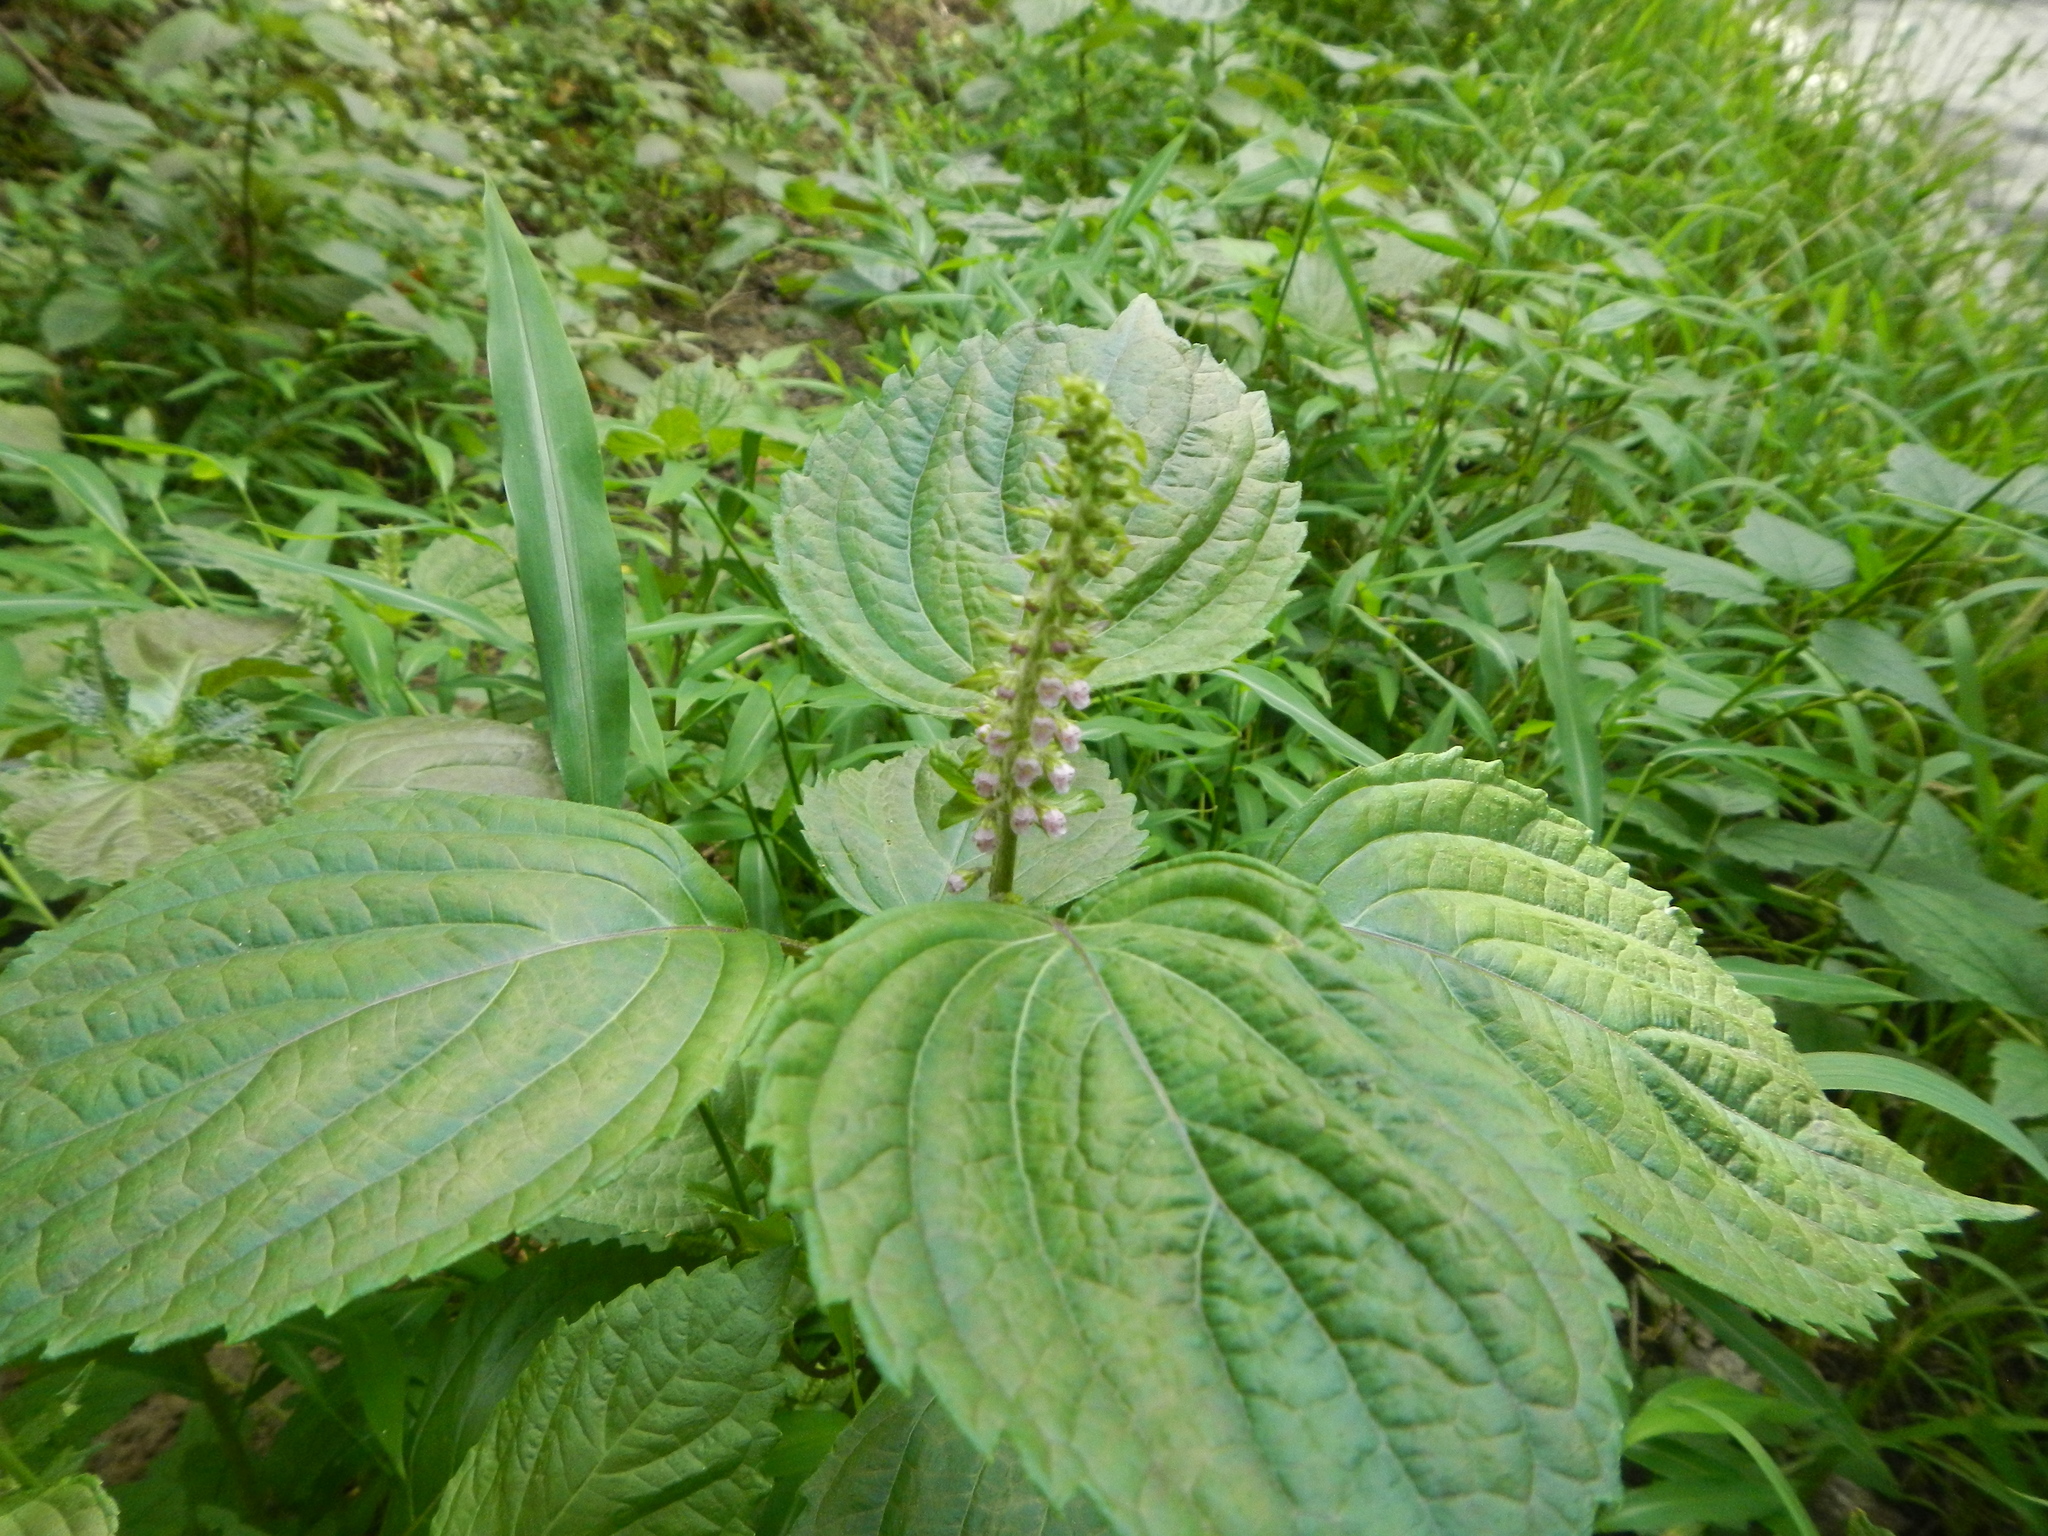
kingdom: Plantae
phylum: Tracheophyta
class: Magnoliopsida
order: Lamiales
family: Lamiaceae
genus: Perilla
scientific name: Perilla frutescens
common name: Perilla
